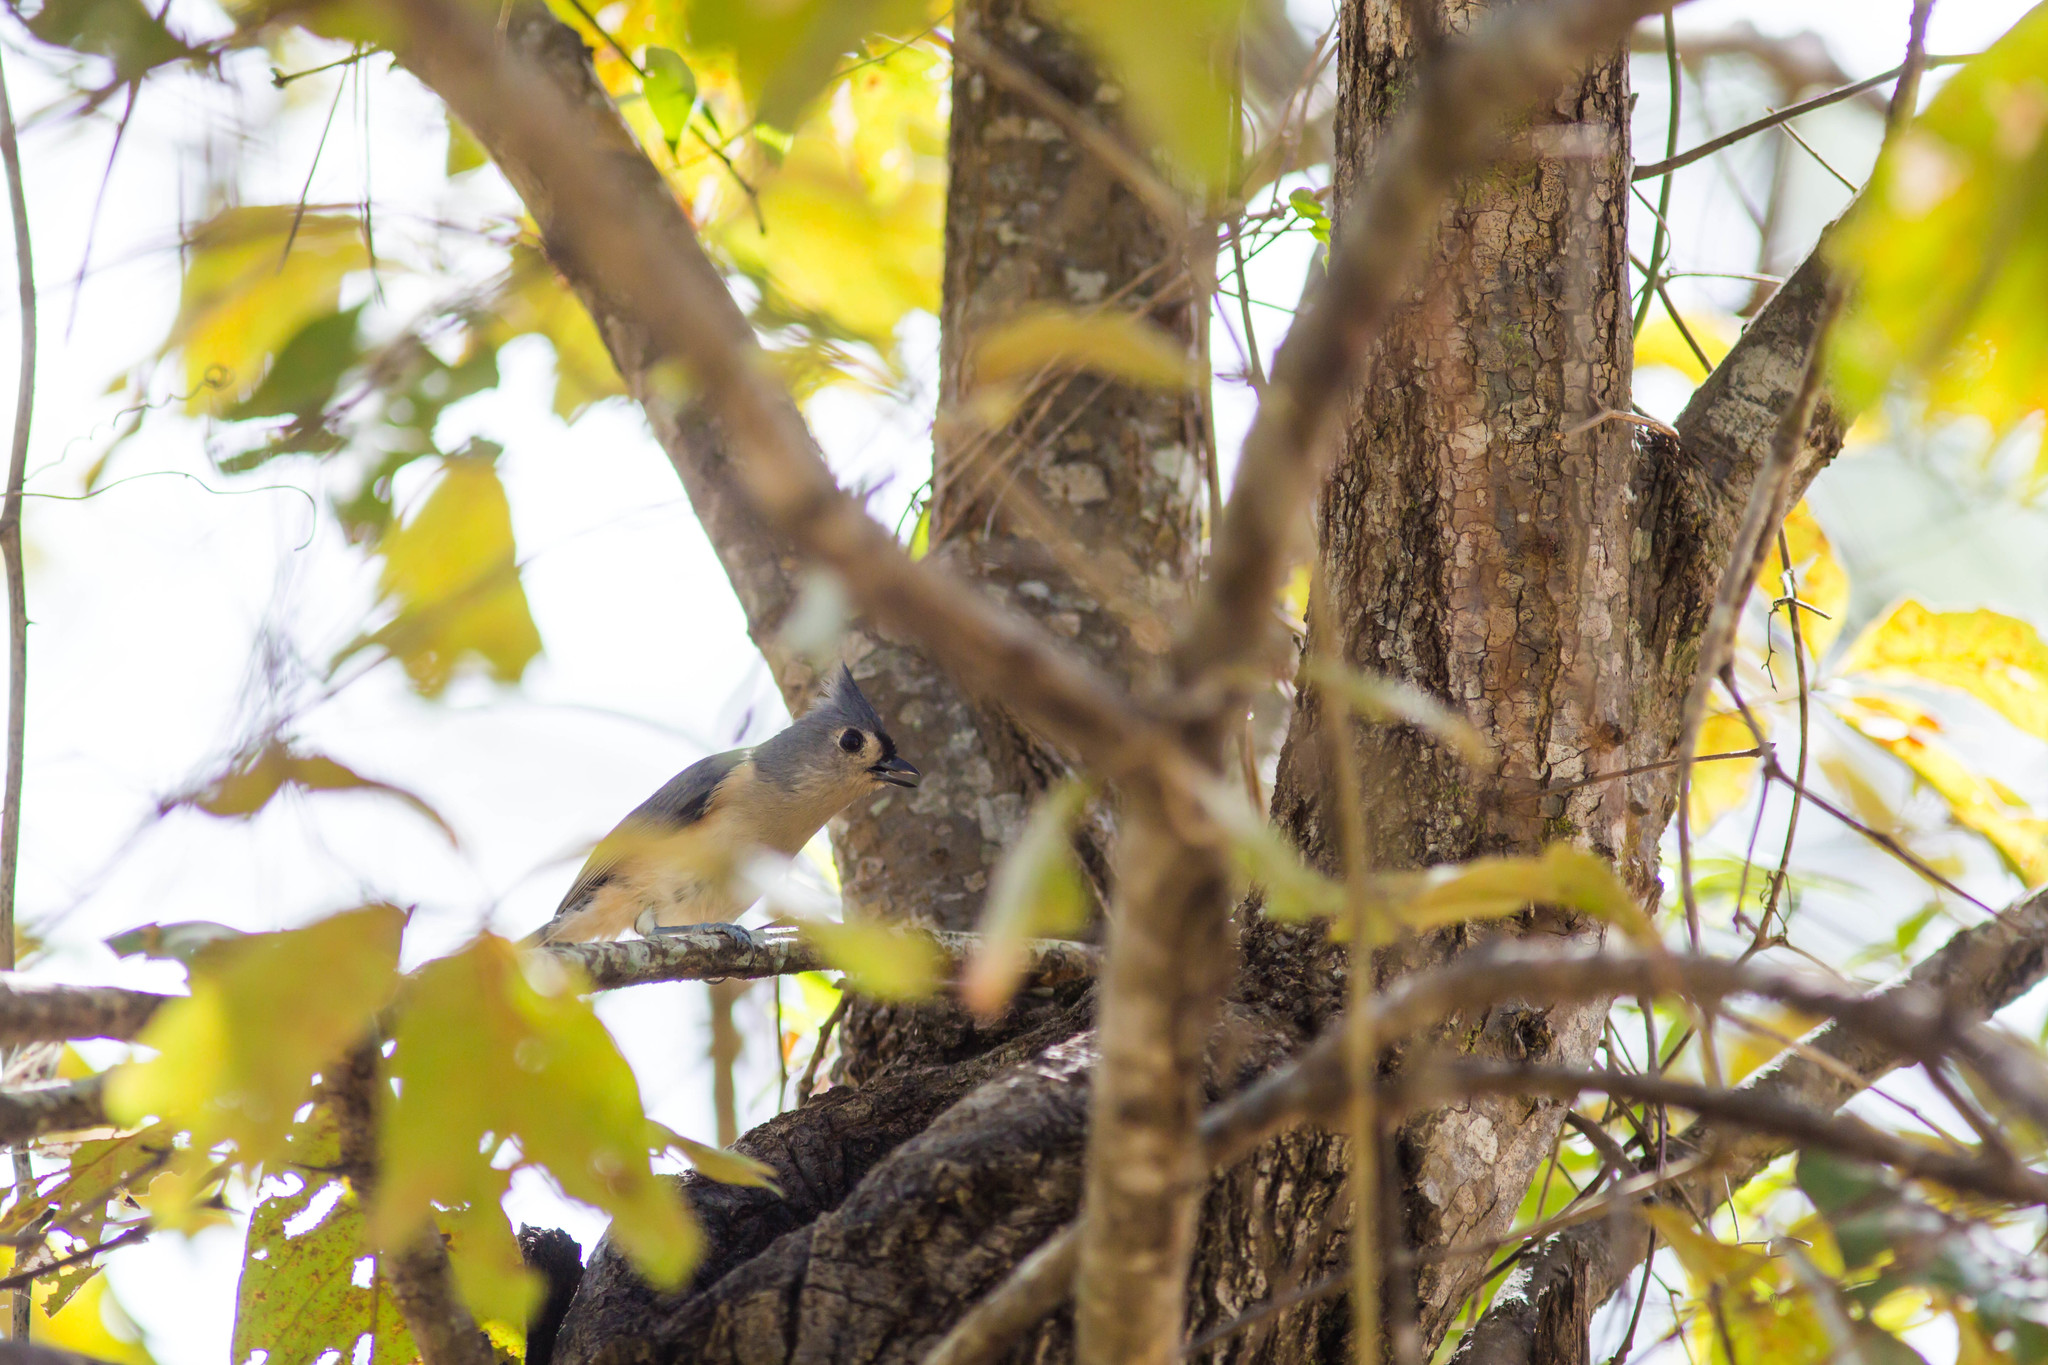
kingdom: Animalia
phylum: Chordata
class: Aves
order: Passeriformes
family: Paridae
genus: Baeolophus
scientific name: Baeolophus bicolor
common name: Tufted titmouse
